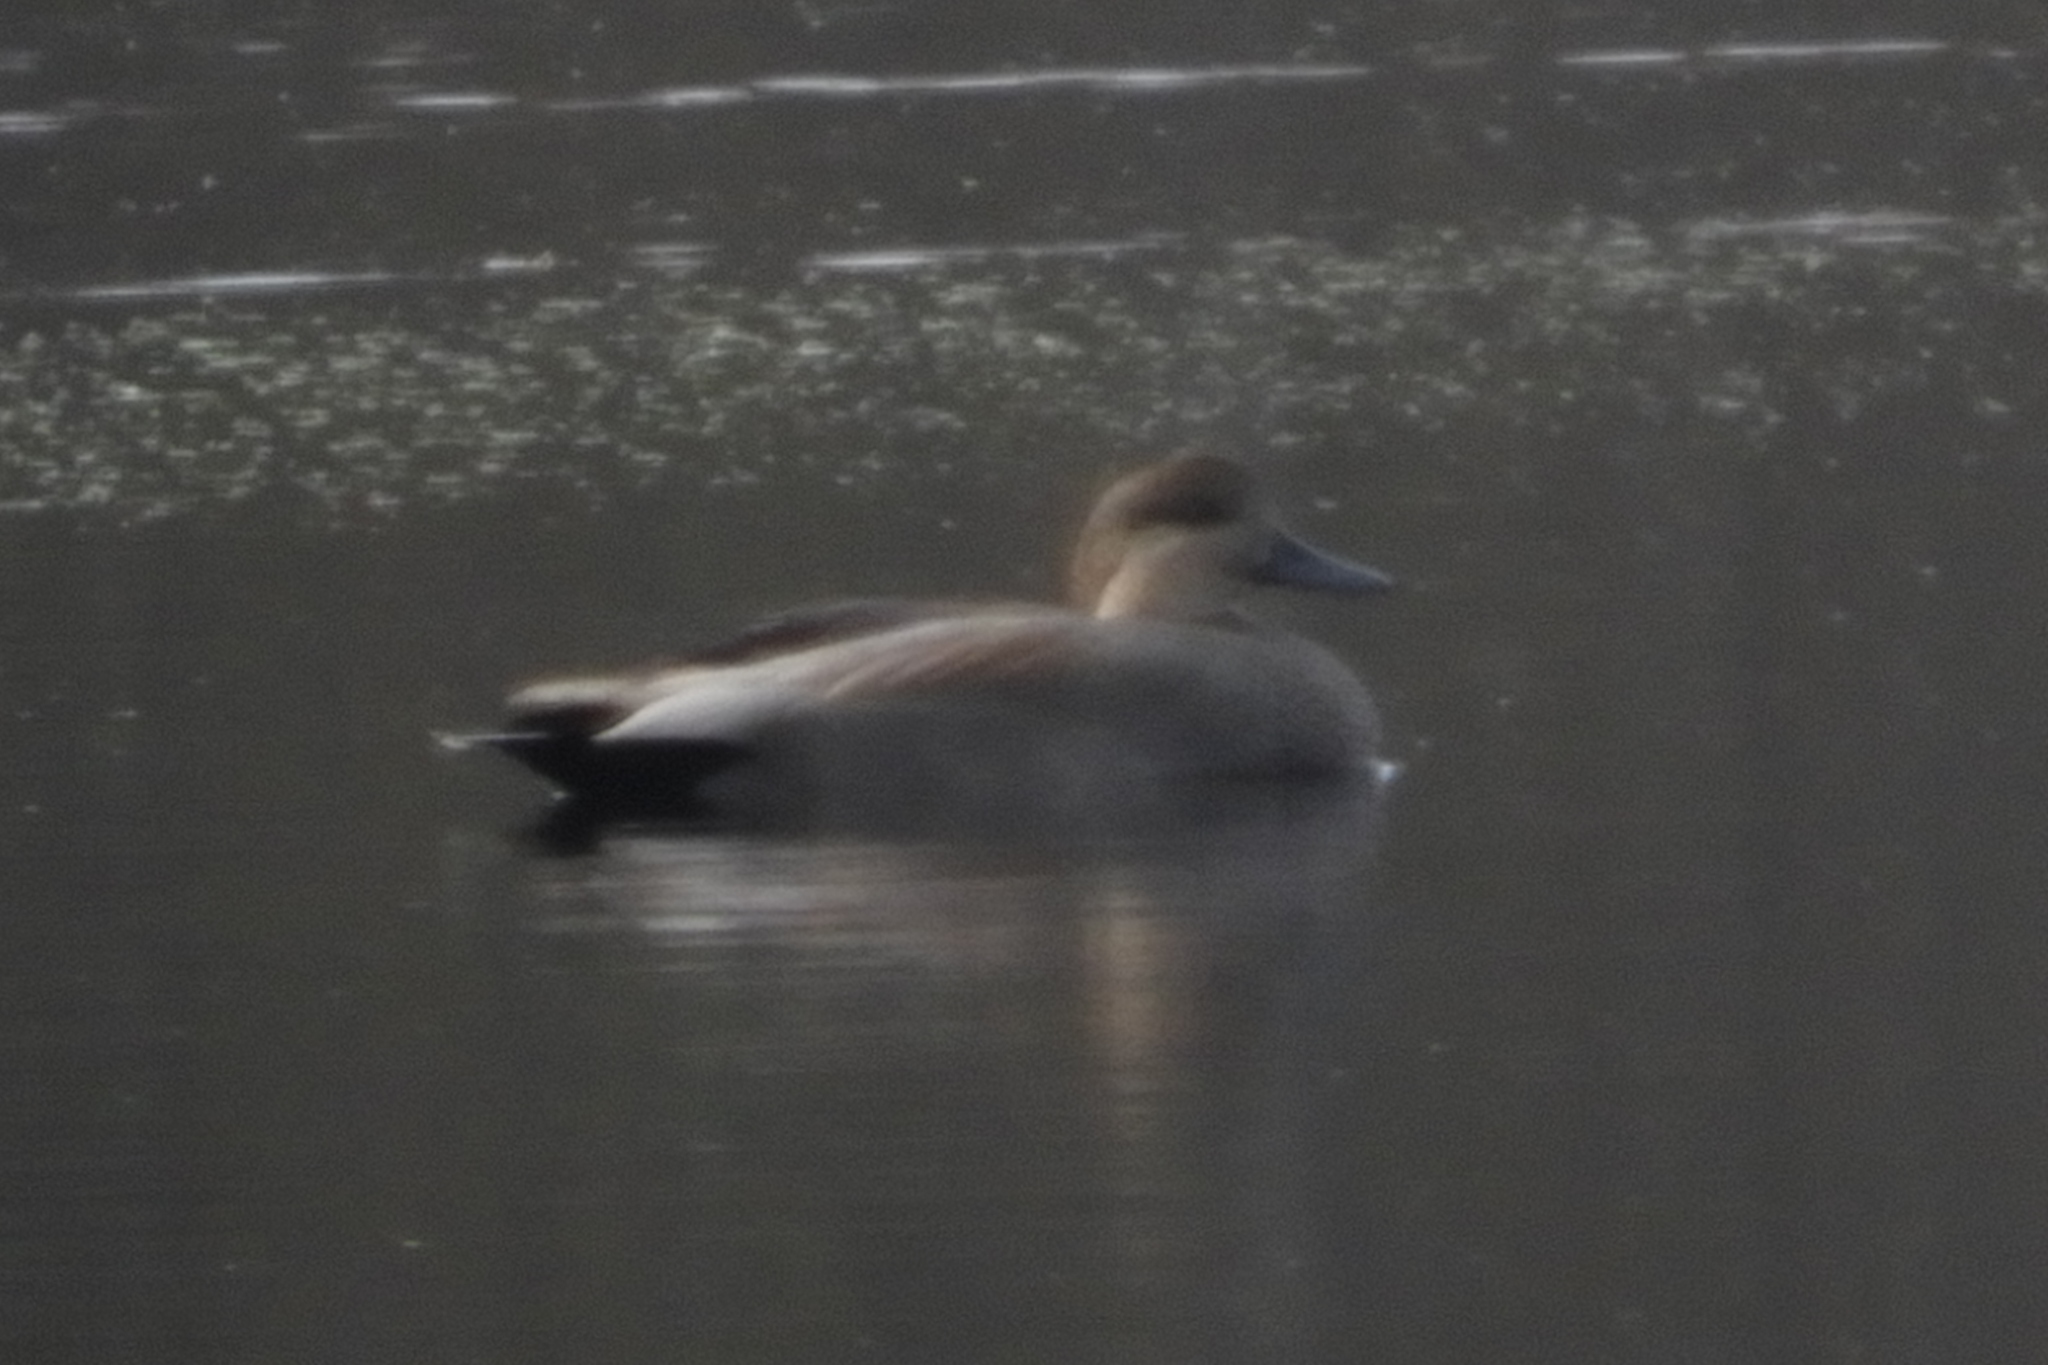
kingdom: Animalia
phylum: Chordata
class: Aves
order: Anseriformes
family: Anatidae
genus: Mareca
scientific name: Mareca strepera
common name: Gadwall
